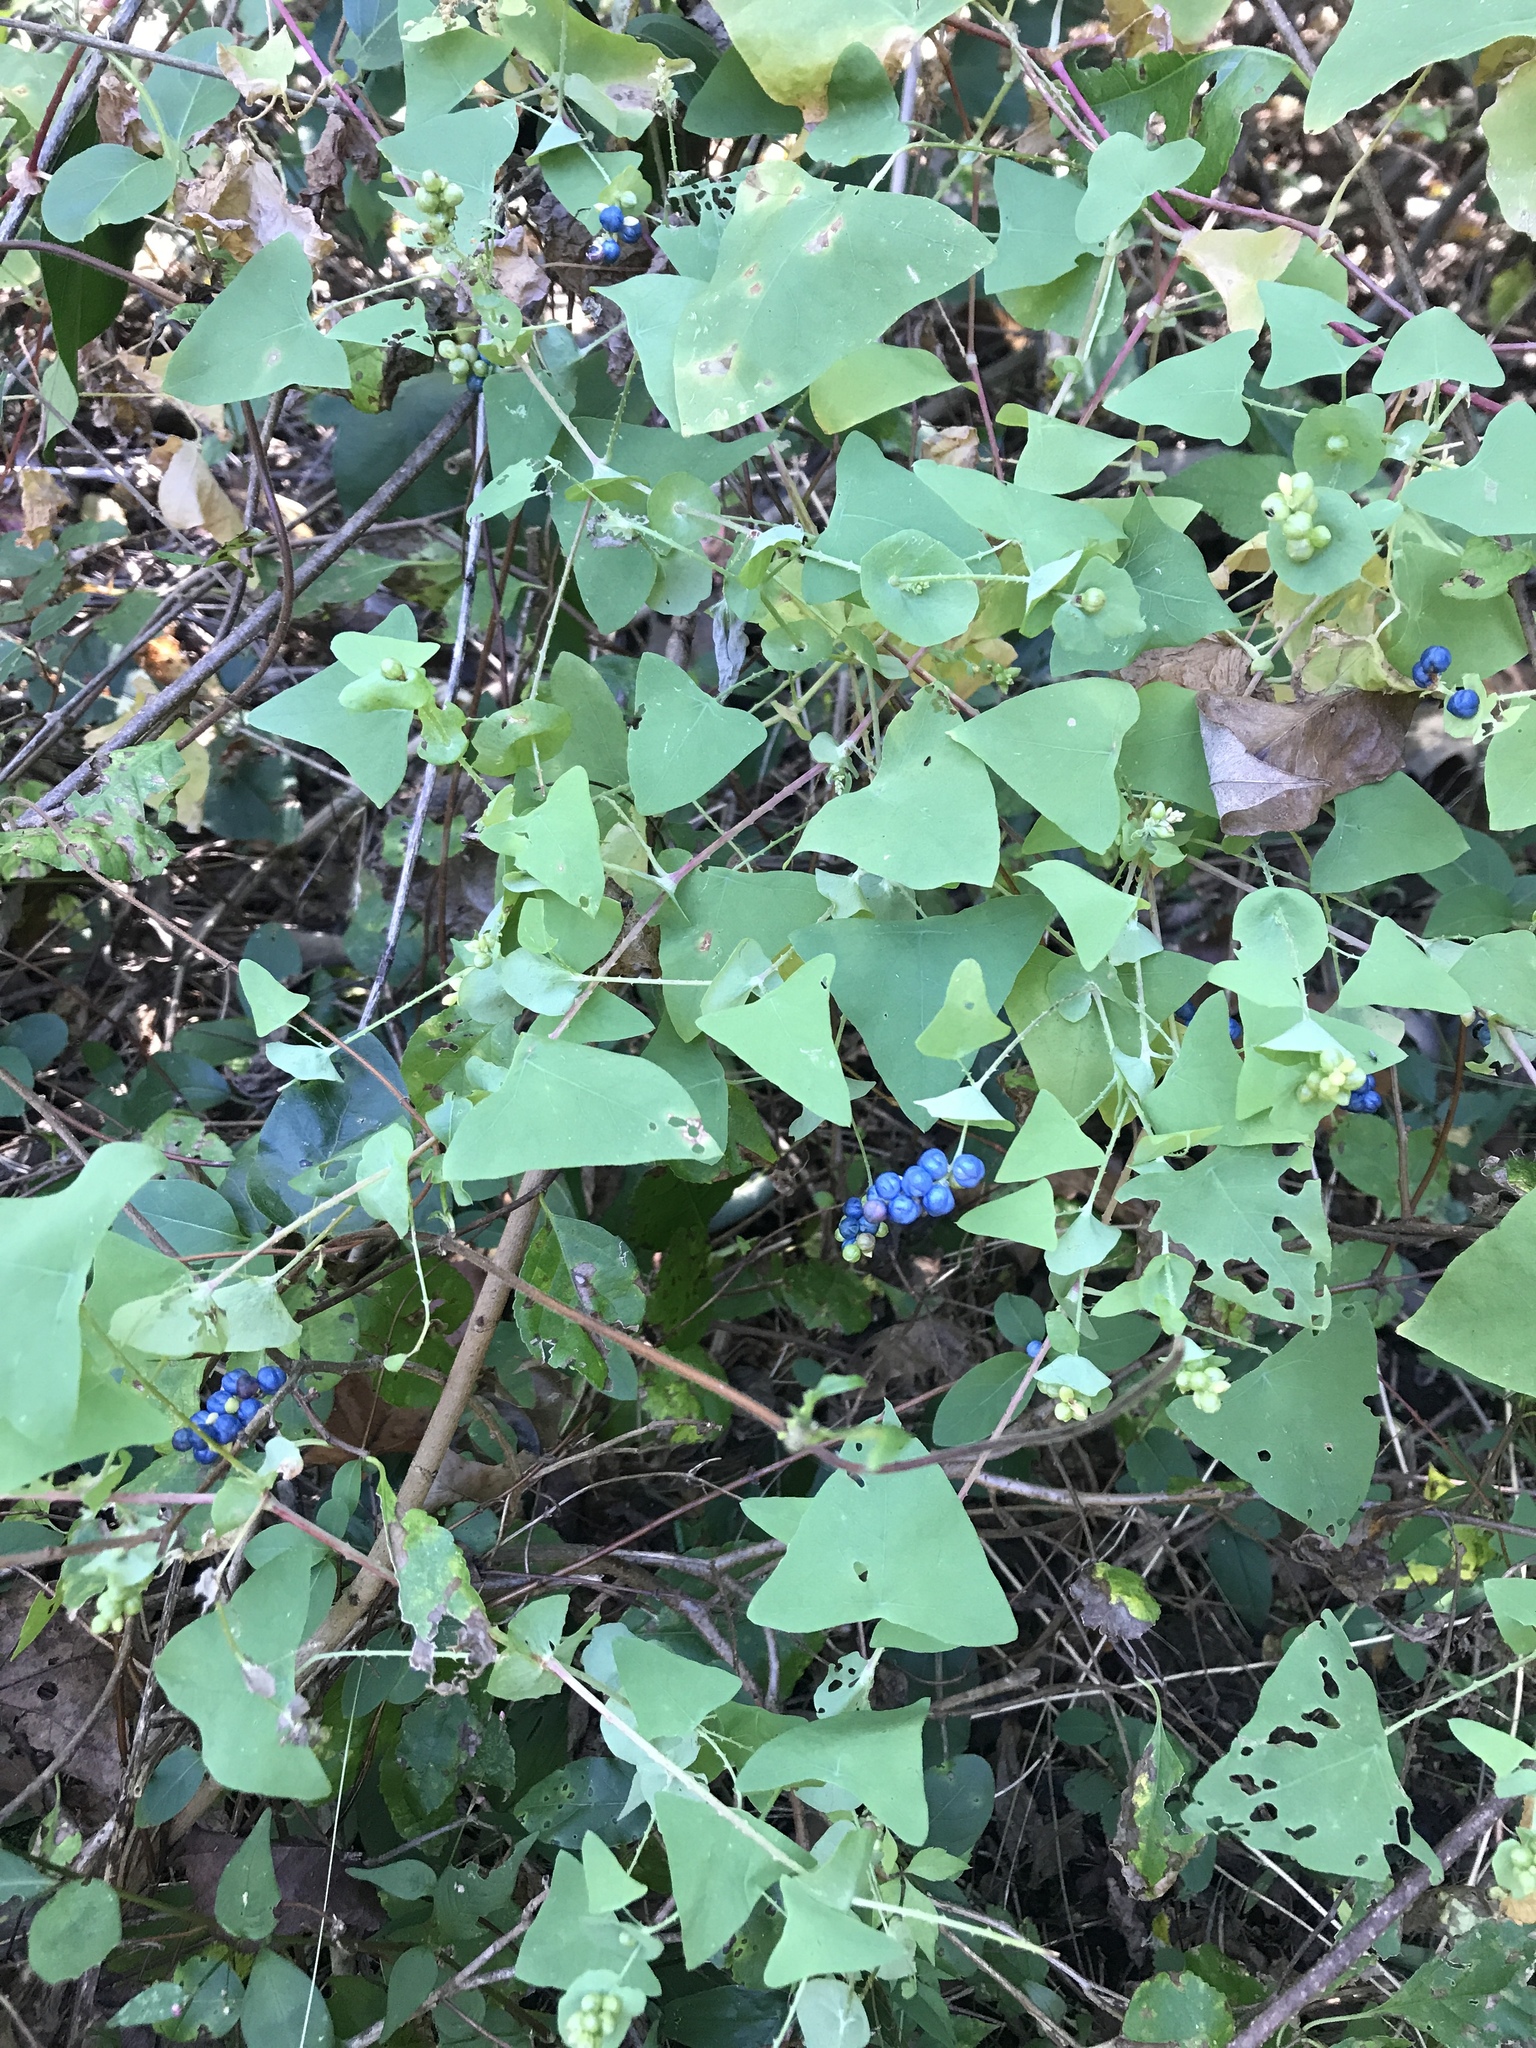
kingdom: Plantae
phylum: Tracheophyta
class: Magnoliopsida
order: Caryophyllales
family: Polygonaceae
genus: Persicaria
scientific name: Persicaria perfoliata
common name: Asiatic tearthumb
